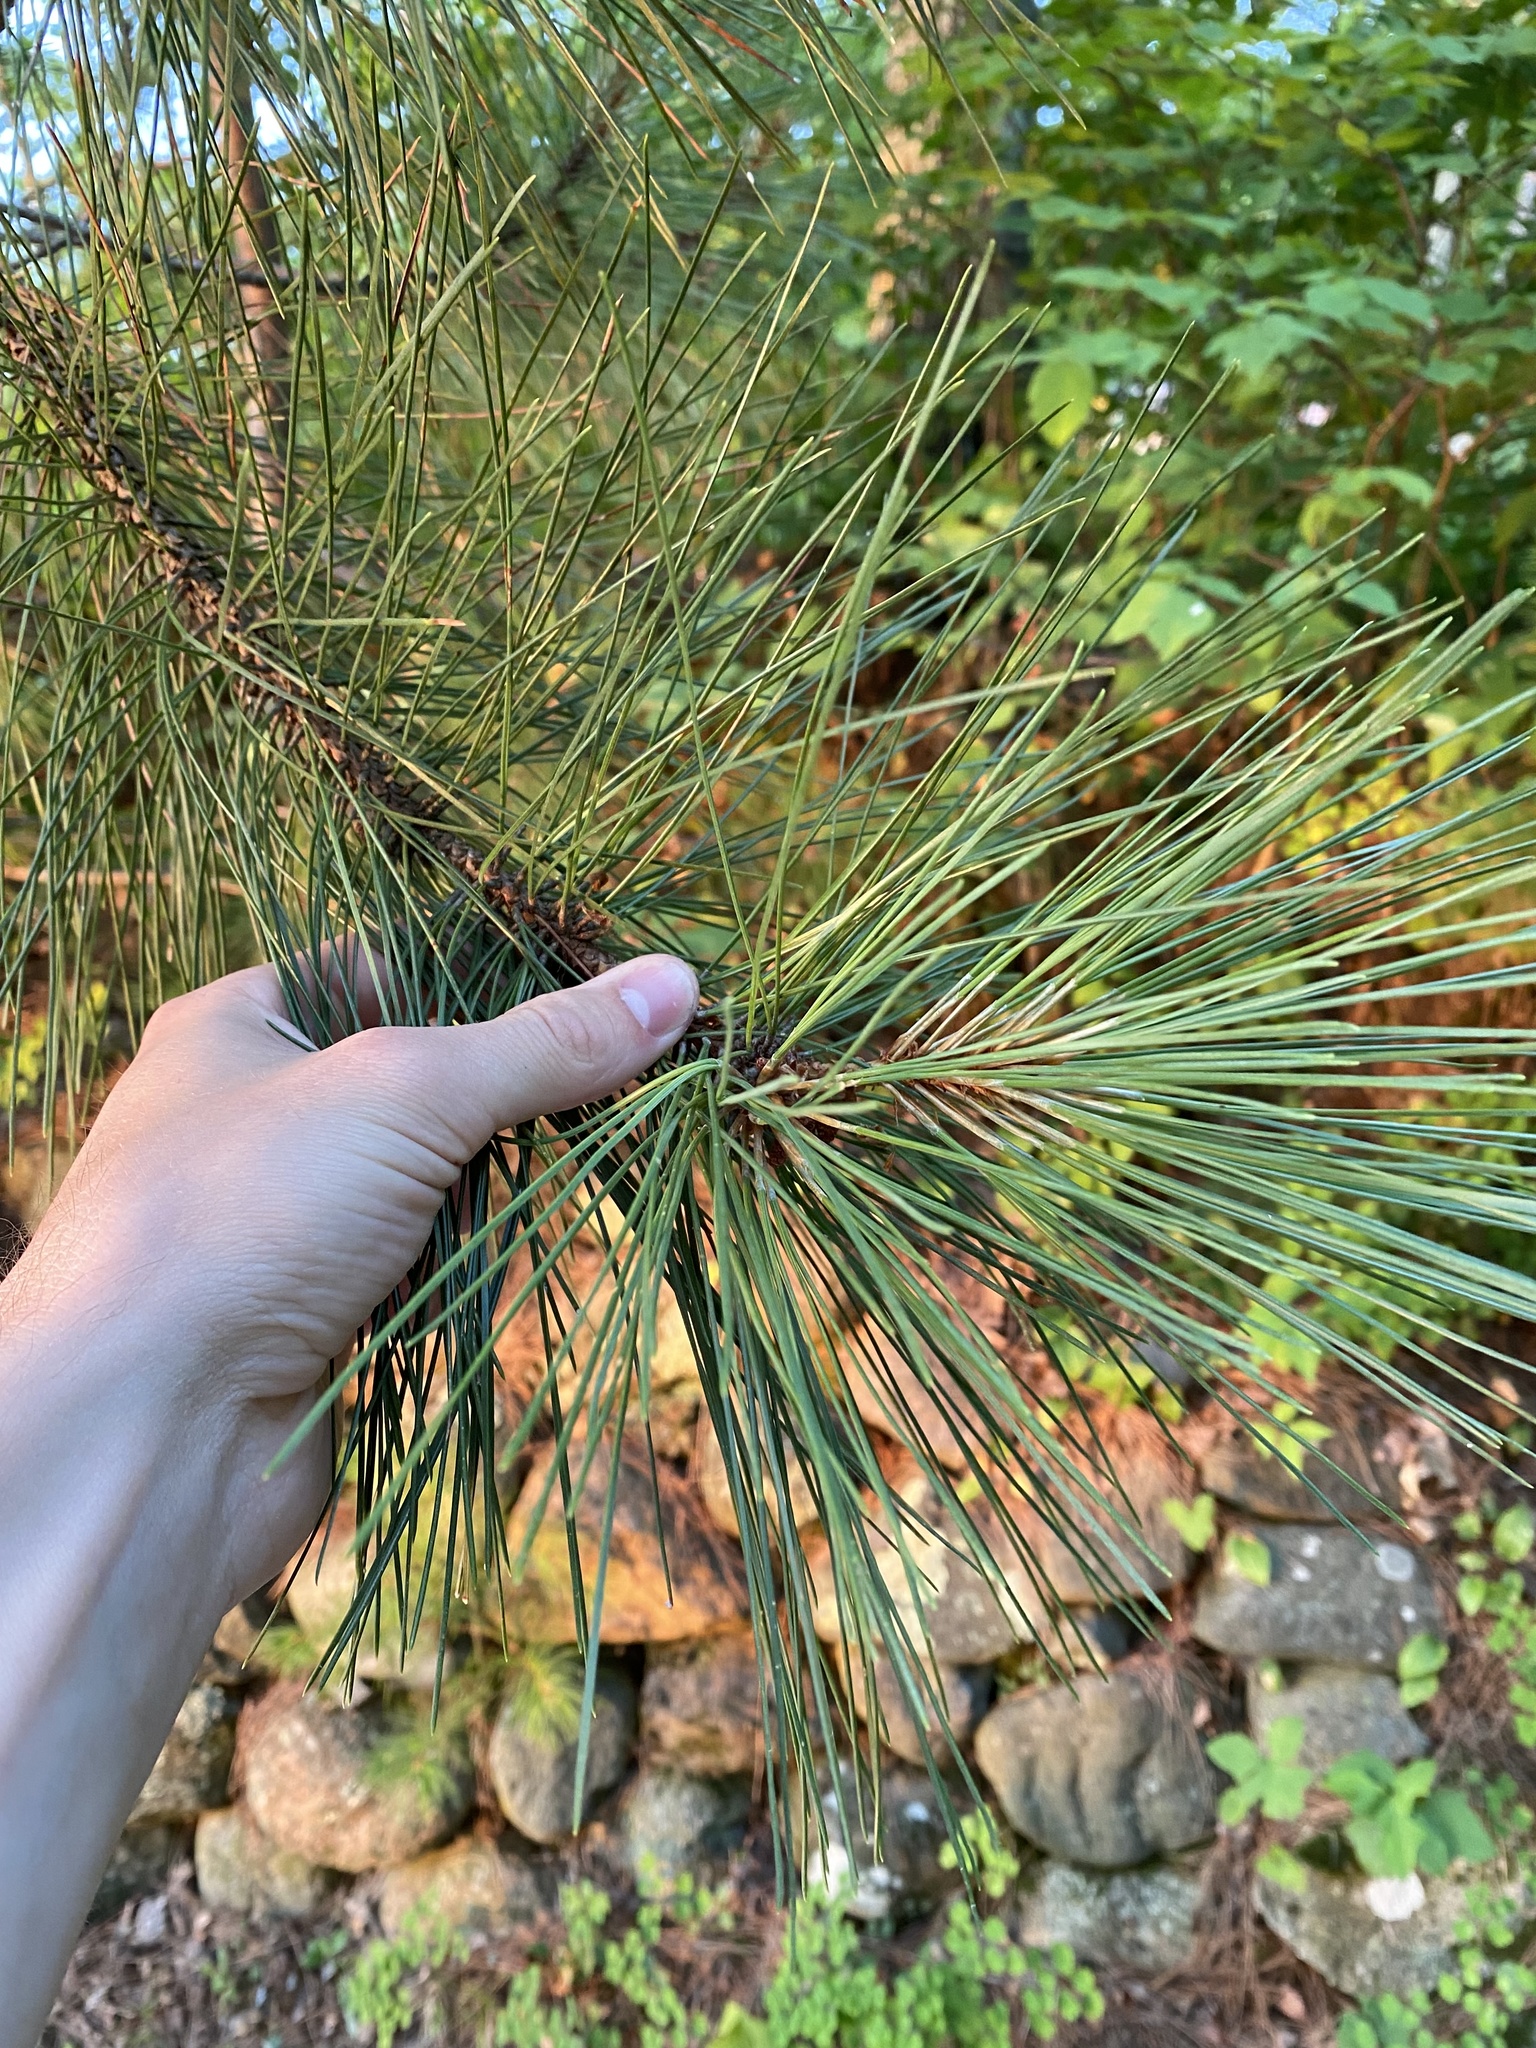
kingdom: Plantae
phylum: Tracheophyta
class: Pinopsida
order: Pinales
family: Pinaceae
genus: Pinus
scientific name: Pinus resinosa
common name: Norway pine
